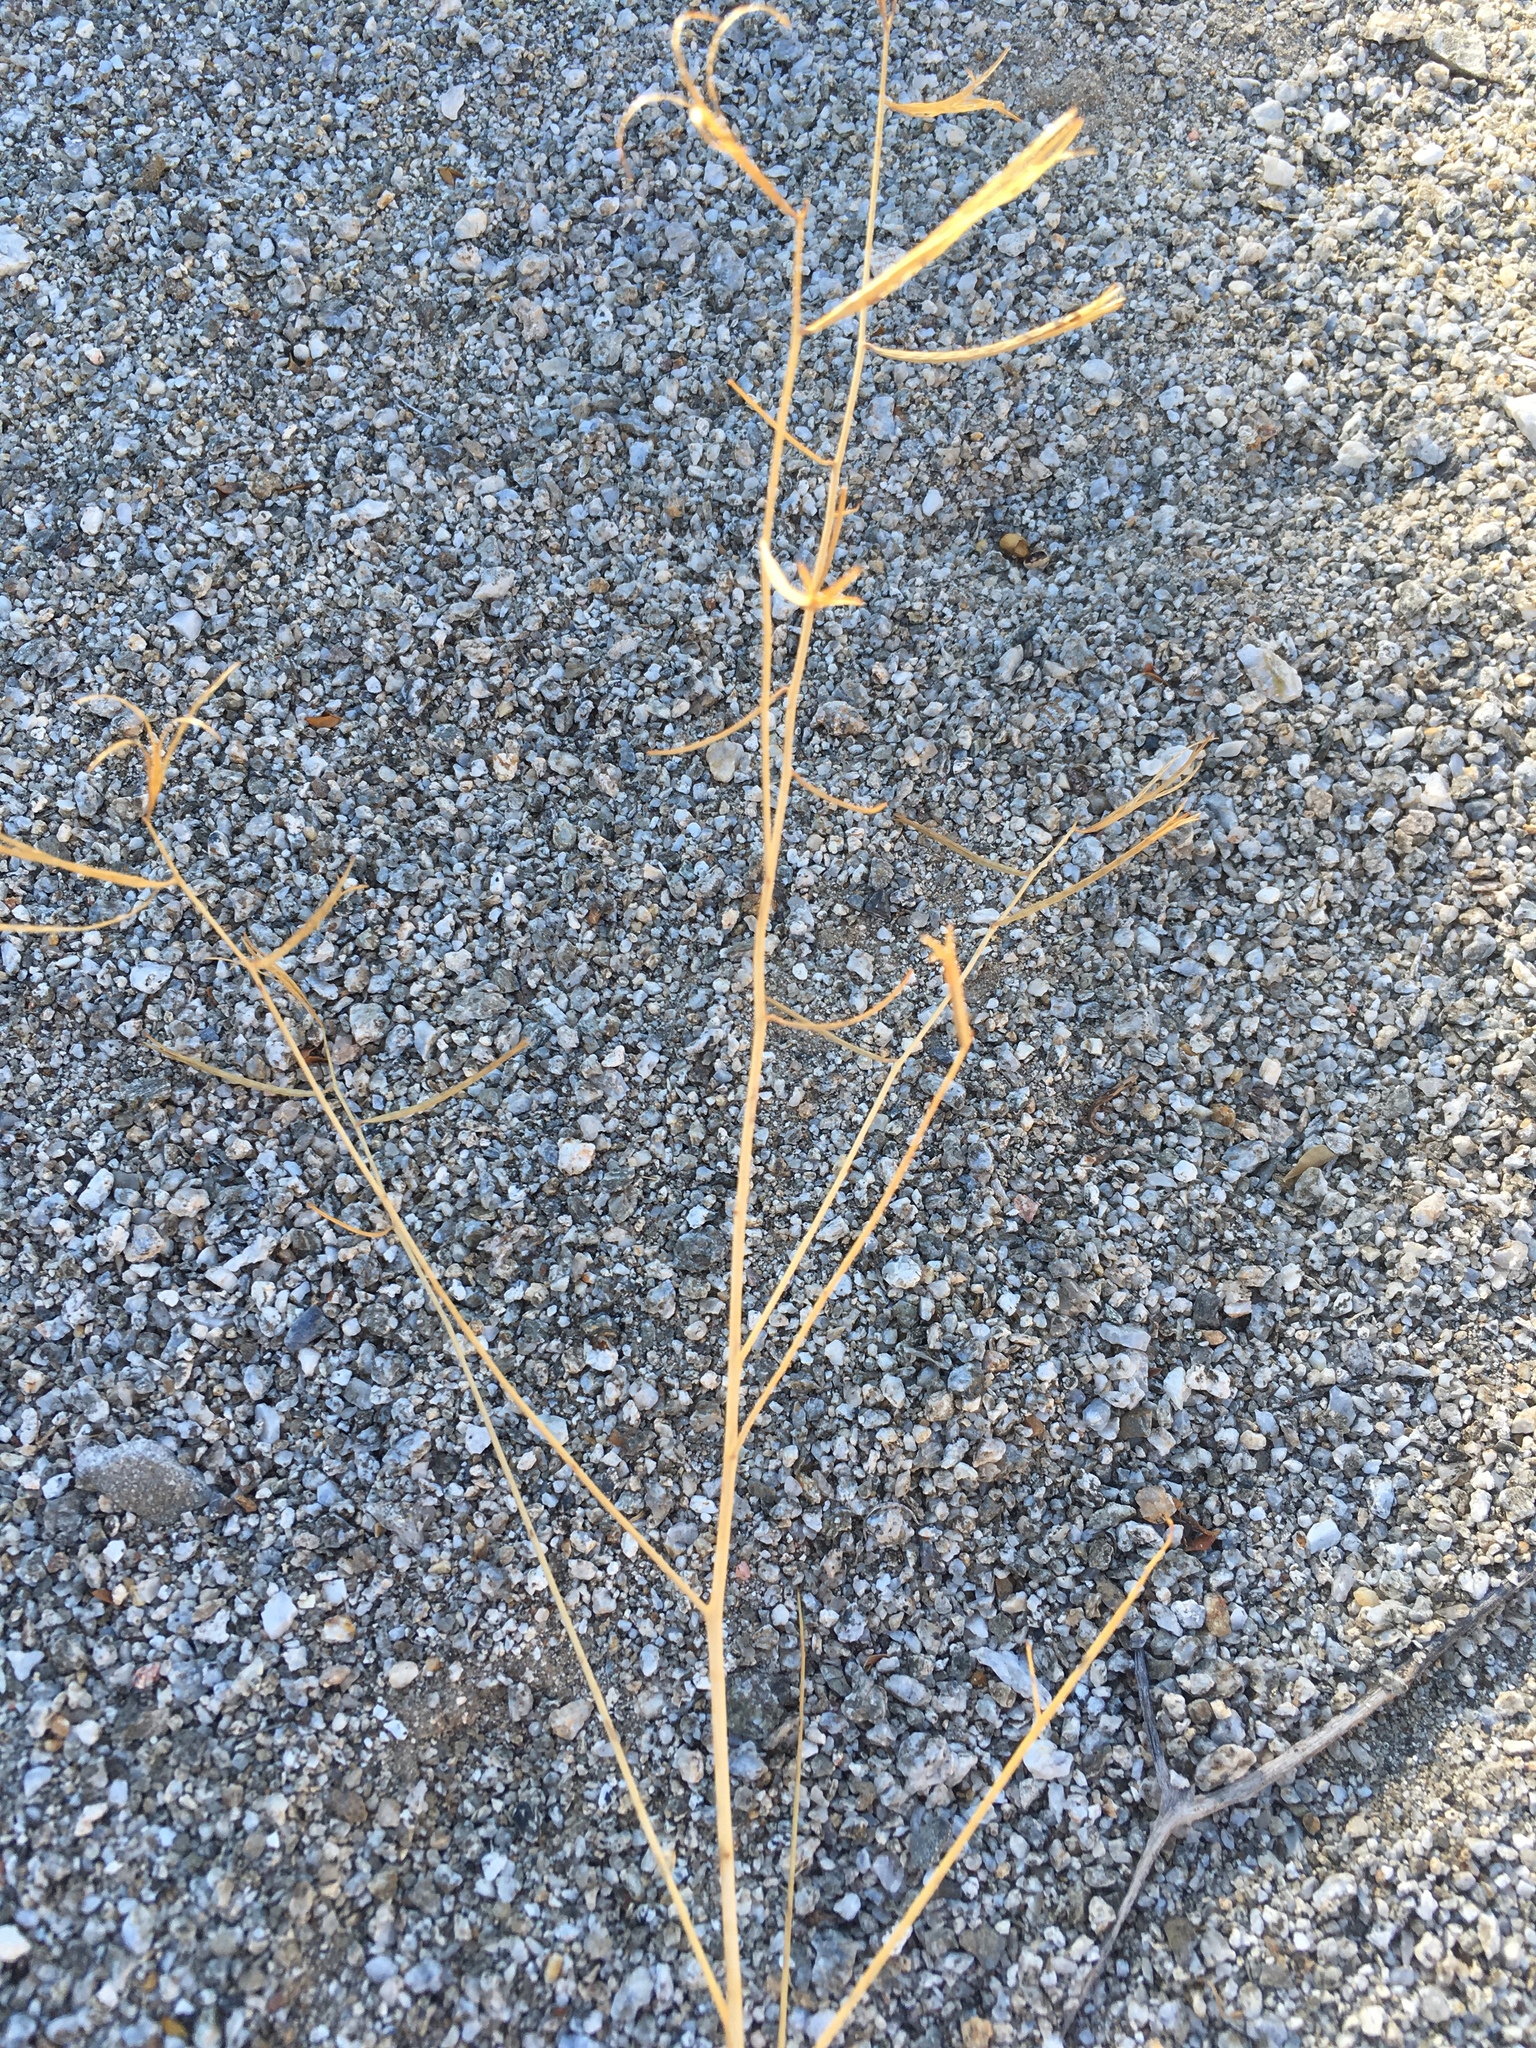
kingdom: Plantae
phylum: Tracheophyta
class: Magnoliopsida
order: Myrtales
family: Onagraceae
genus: Eulobus
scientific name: Eulobus californicus
